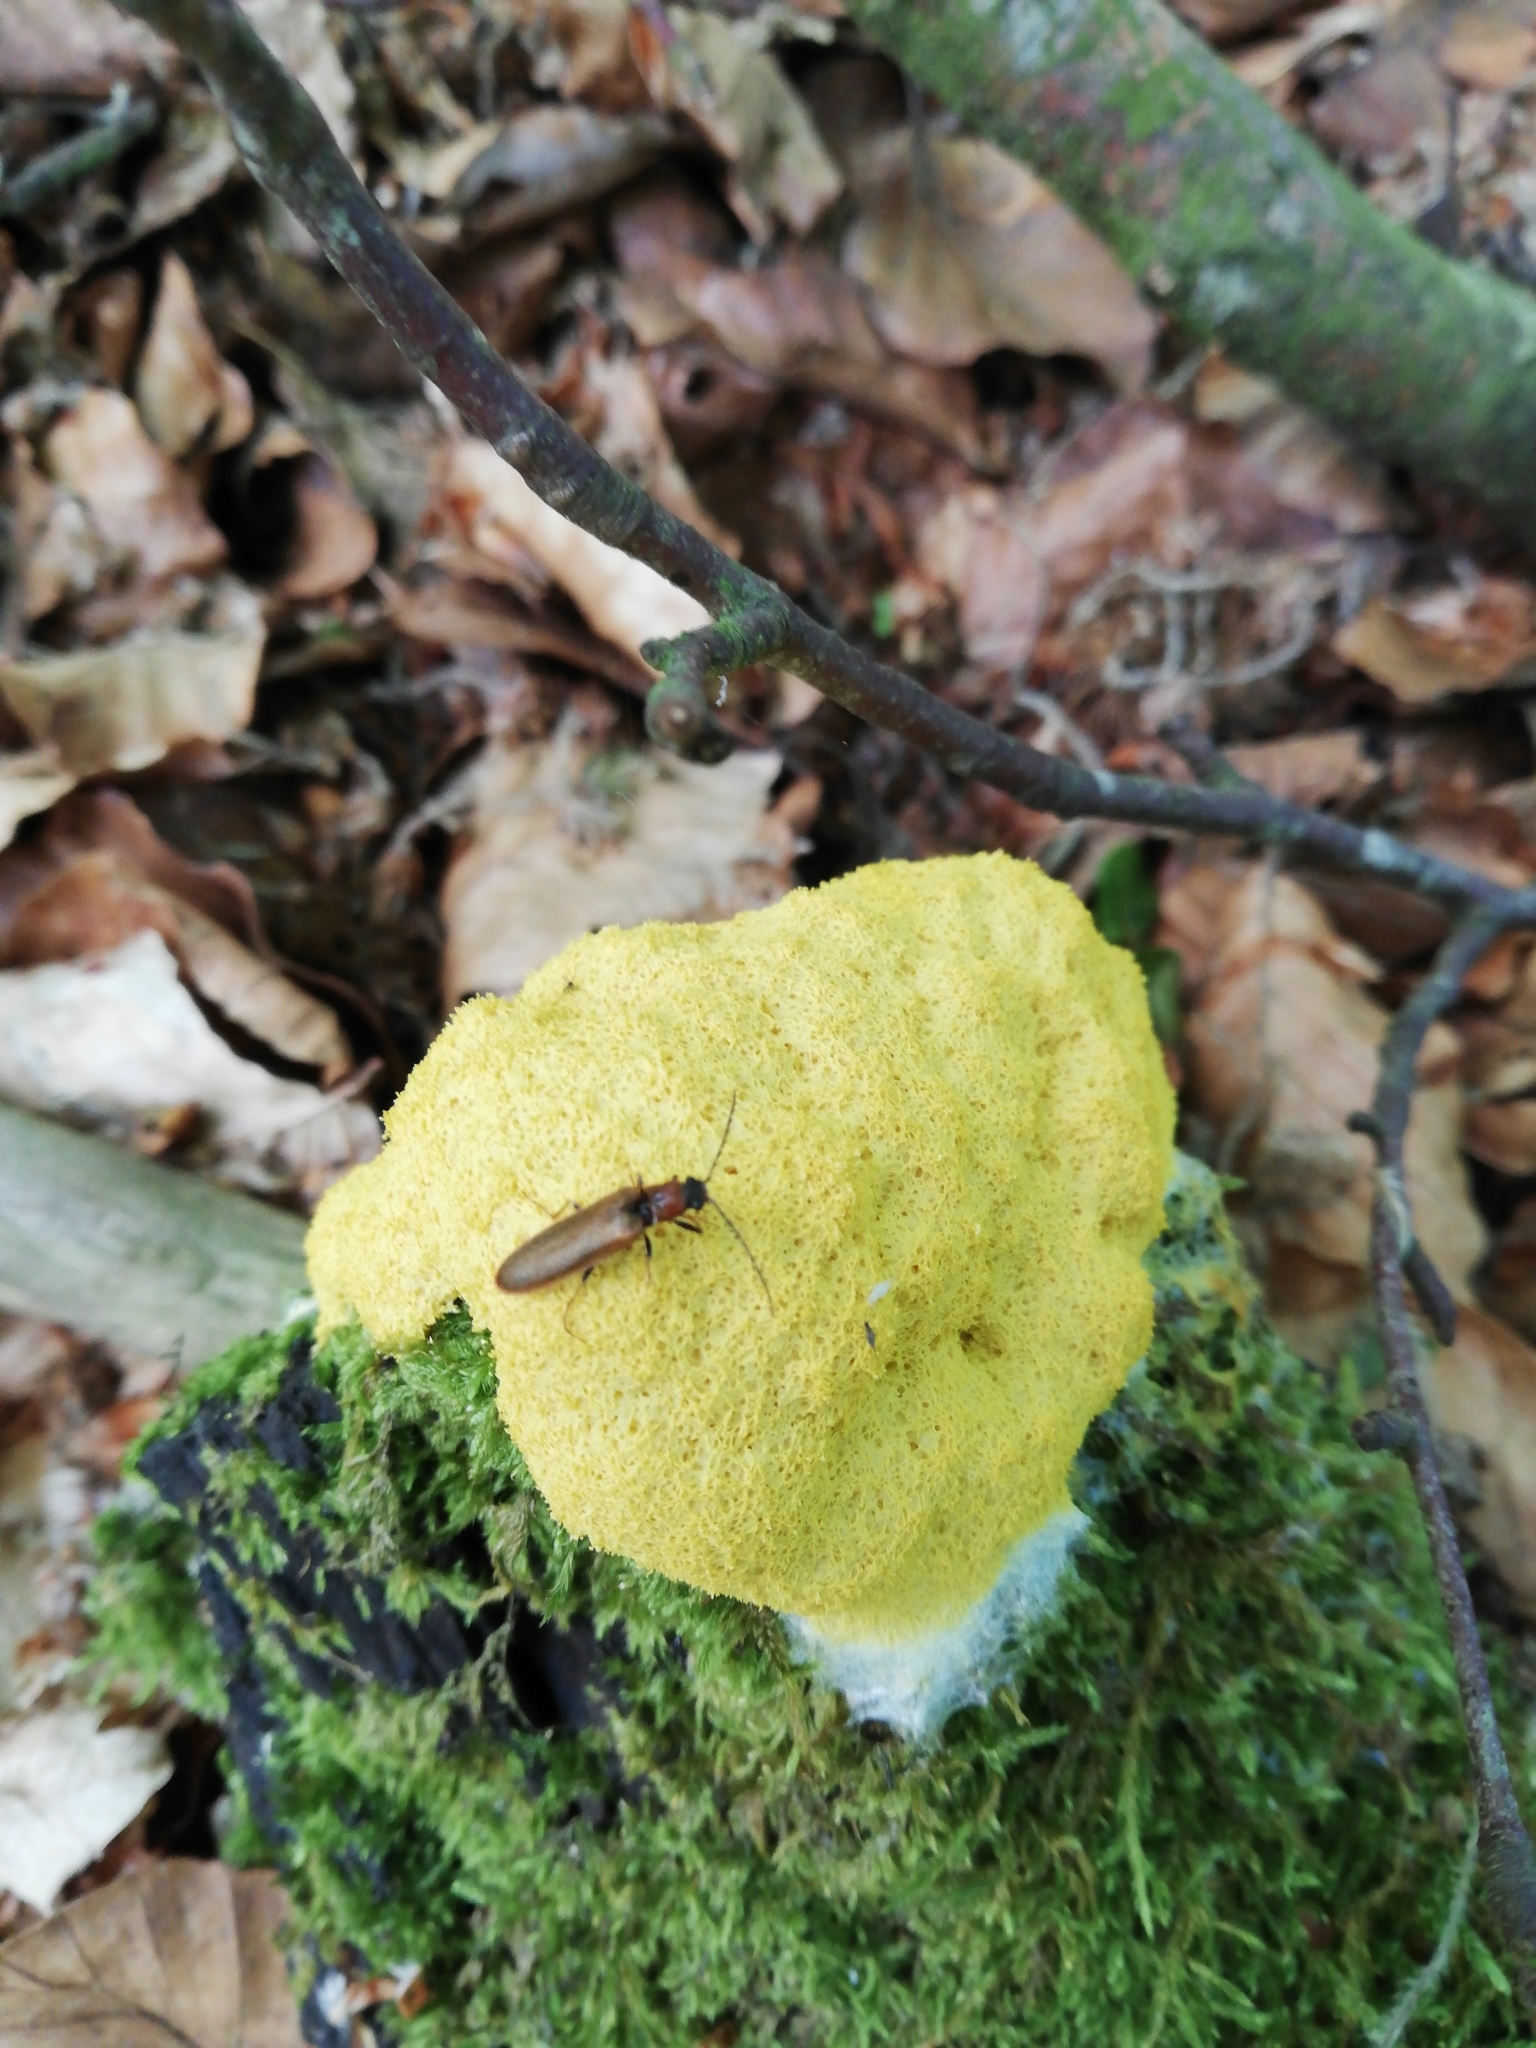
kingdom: Animalia
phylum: Arthropoda
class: Insecta
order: Coleoptera
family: Elateridae
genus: Denticollis
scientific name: Denticollis linearis
